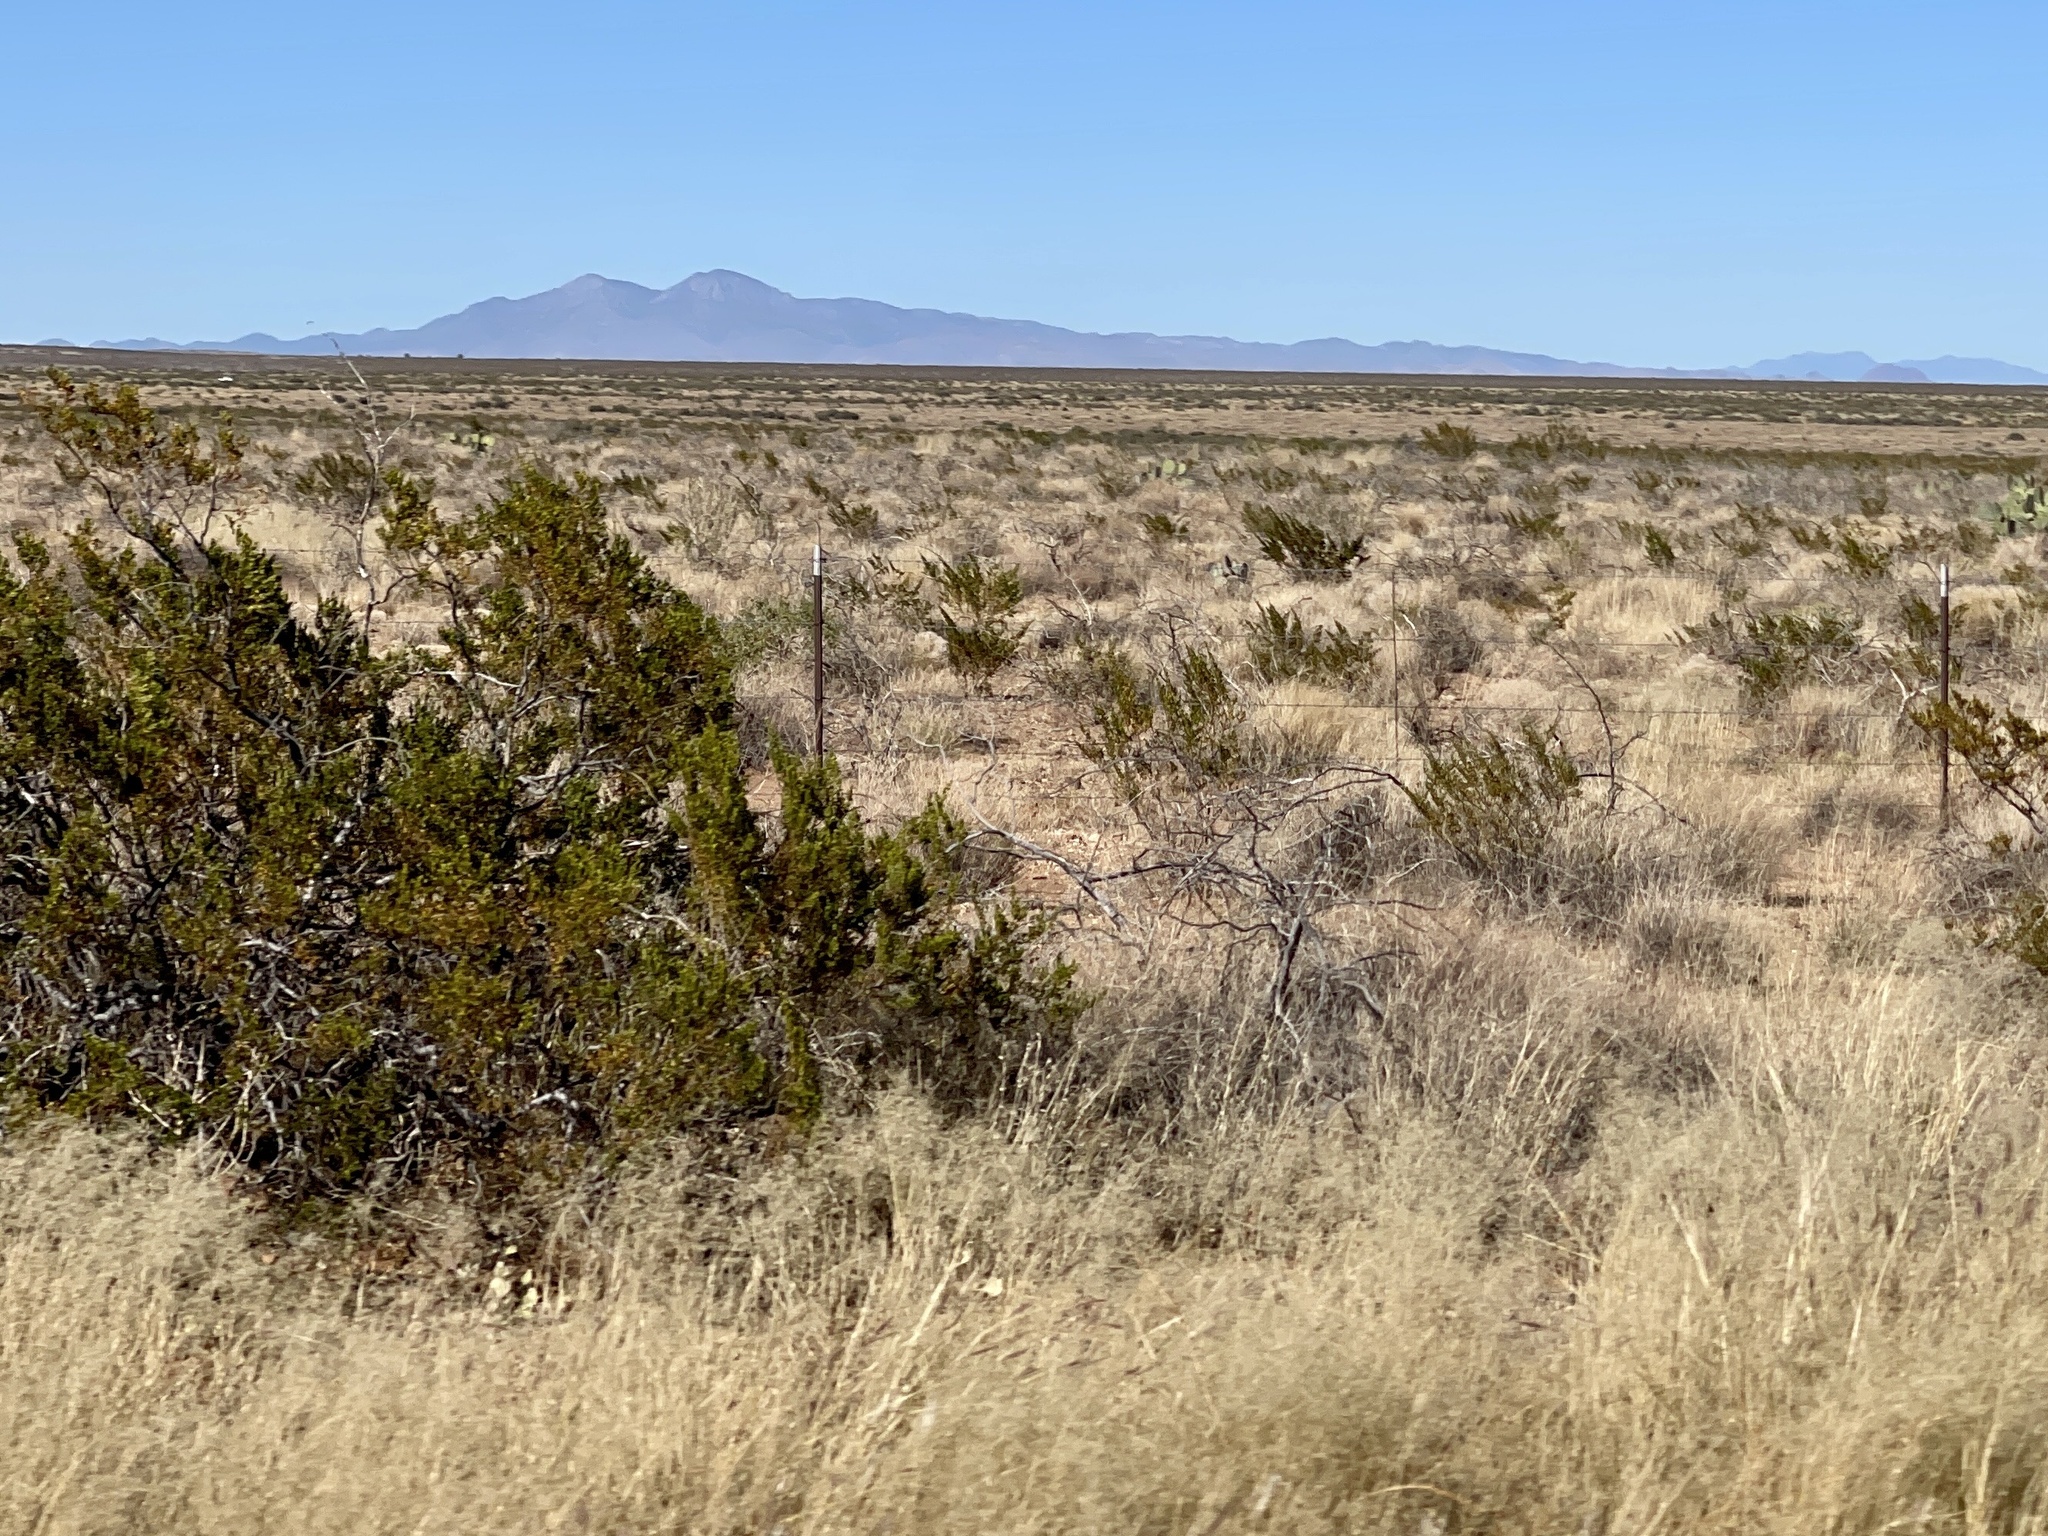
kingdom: Plantae
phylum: Tracheophyta
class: Magnoliopsida
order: Zygophyllales
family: Zygophyllaceae
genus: Larrea
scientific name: Larrea tridentata
